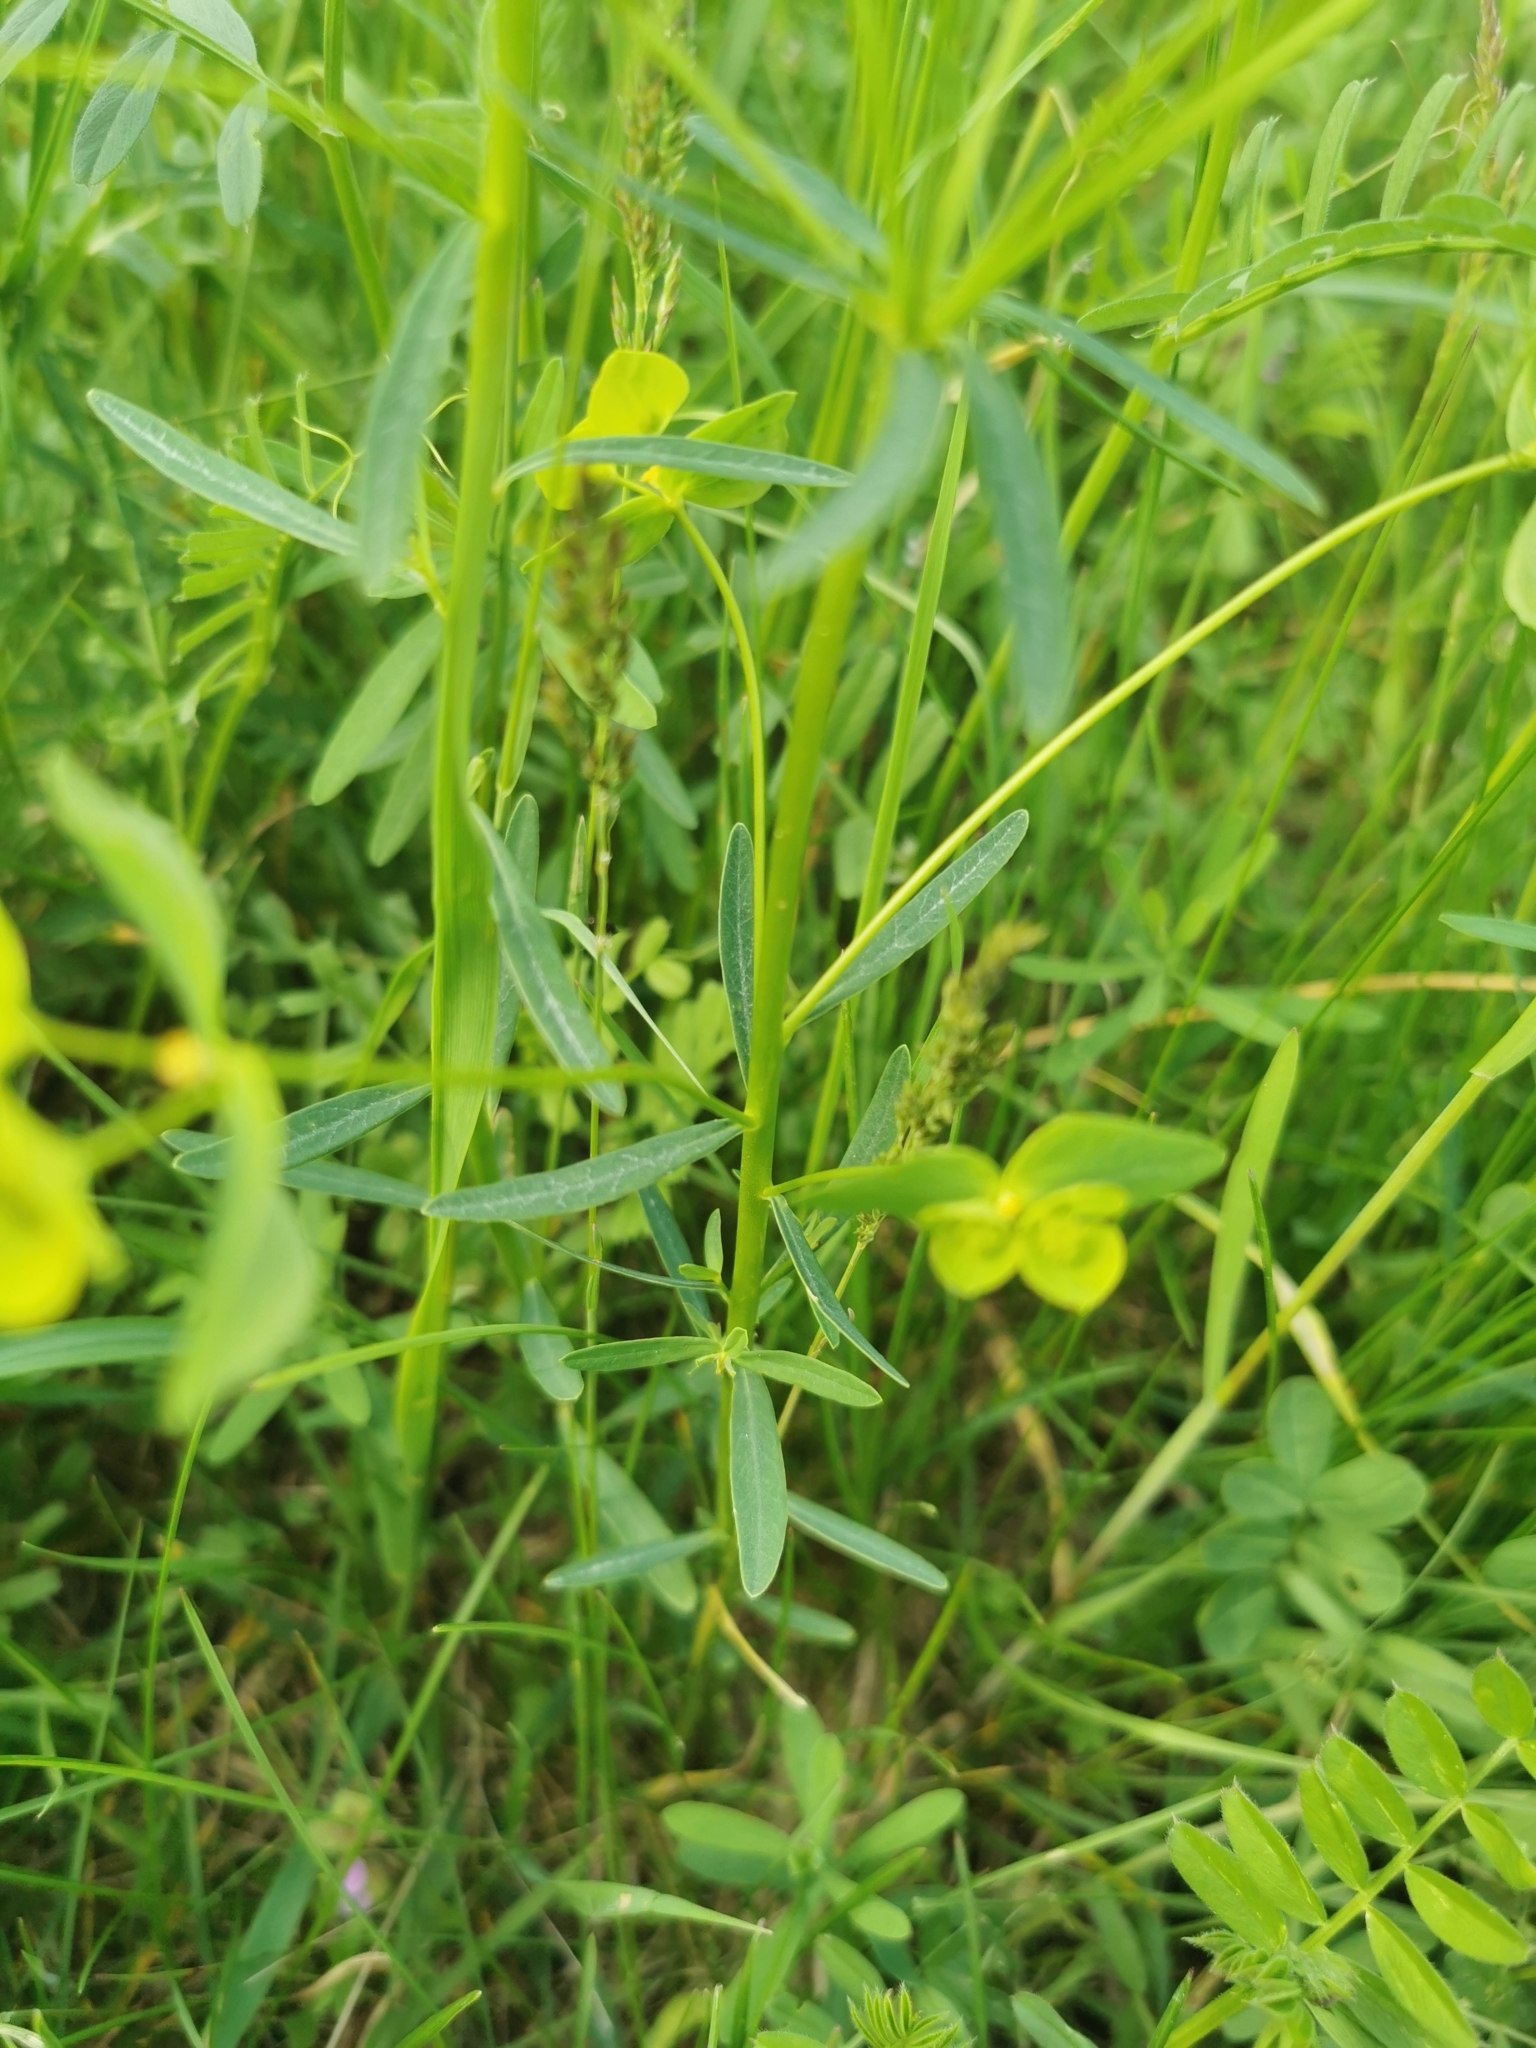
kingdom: Plantae
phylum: Tracheophyta
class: Magnoliopsida
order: Malpighiales
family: Euphorbiaceae
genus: Euphorbia
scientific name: Euphorbia esula
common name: Leafy spurge
